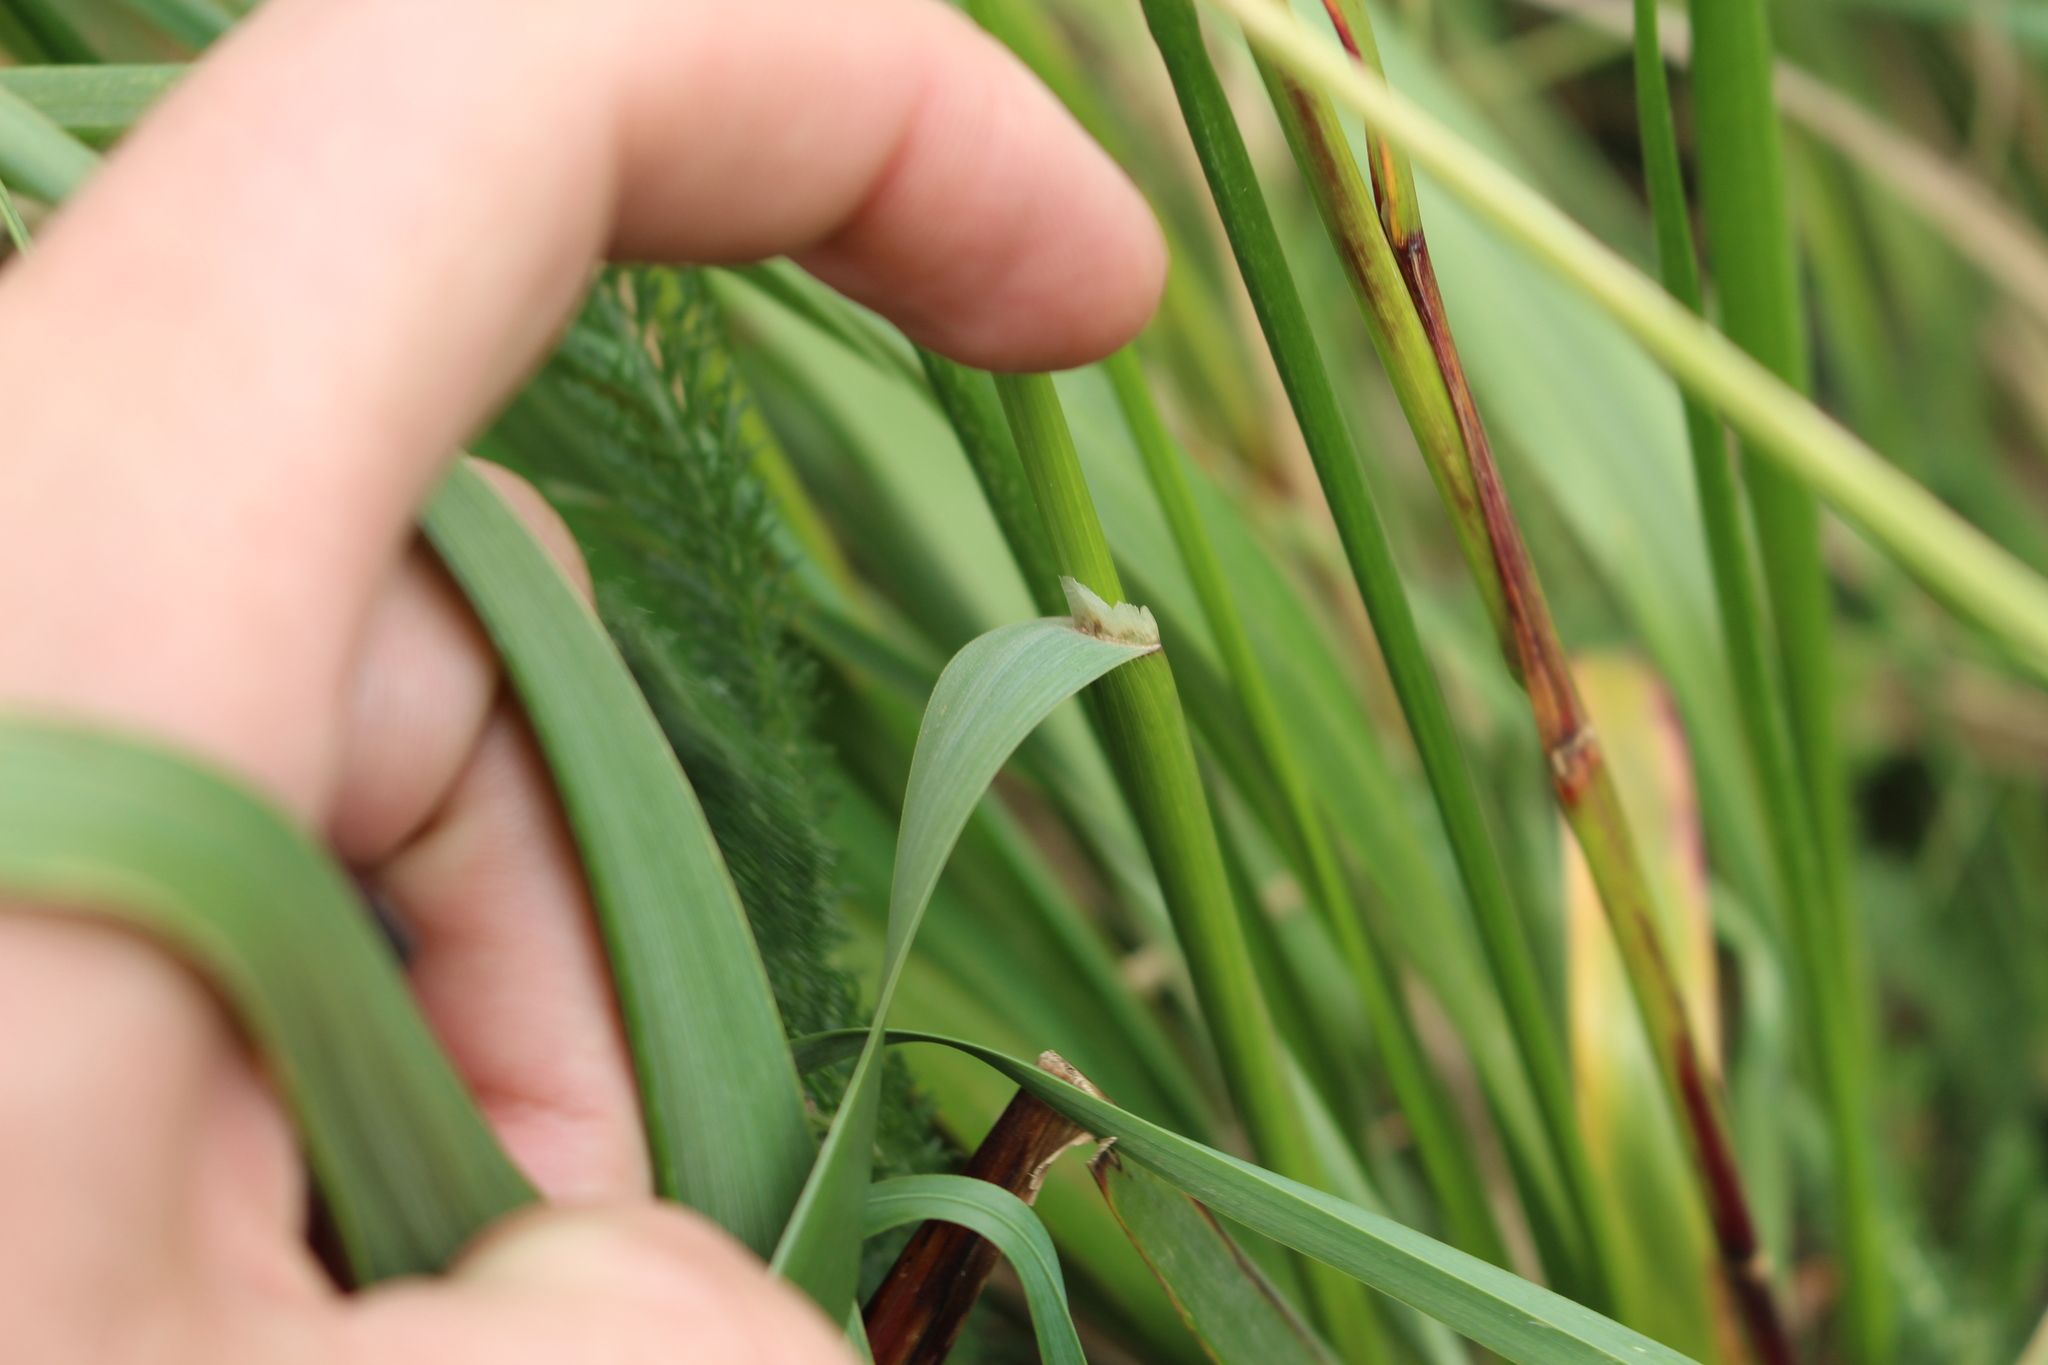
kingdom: Plantae
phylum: Tracheophyta
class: Liliopsida
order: Poales
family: Poaceae
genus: Anthoxanthum
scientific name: Anthoxanthum redolens
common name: Sweet holy grass
